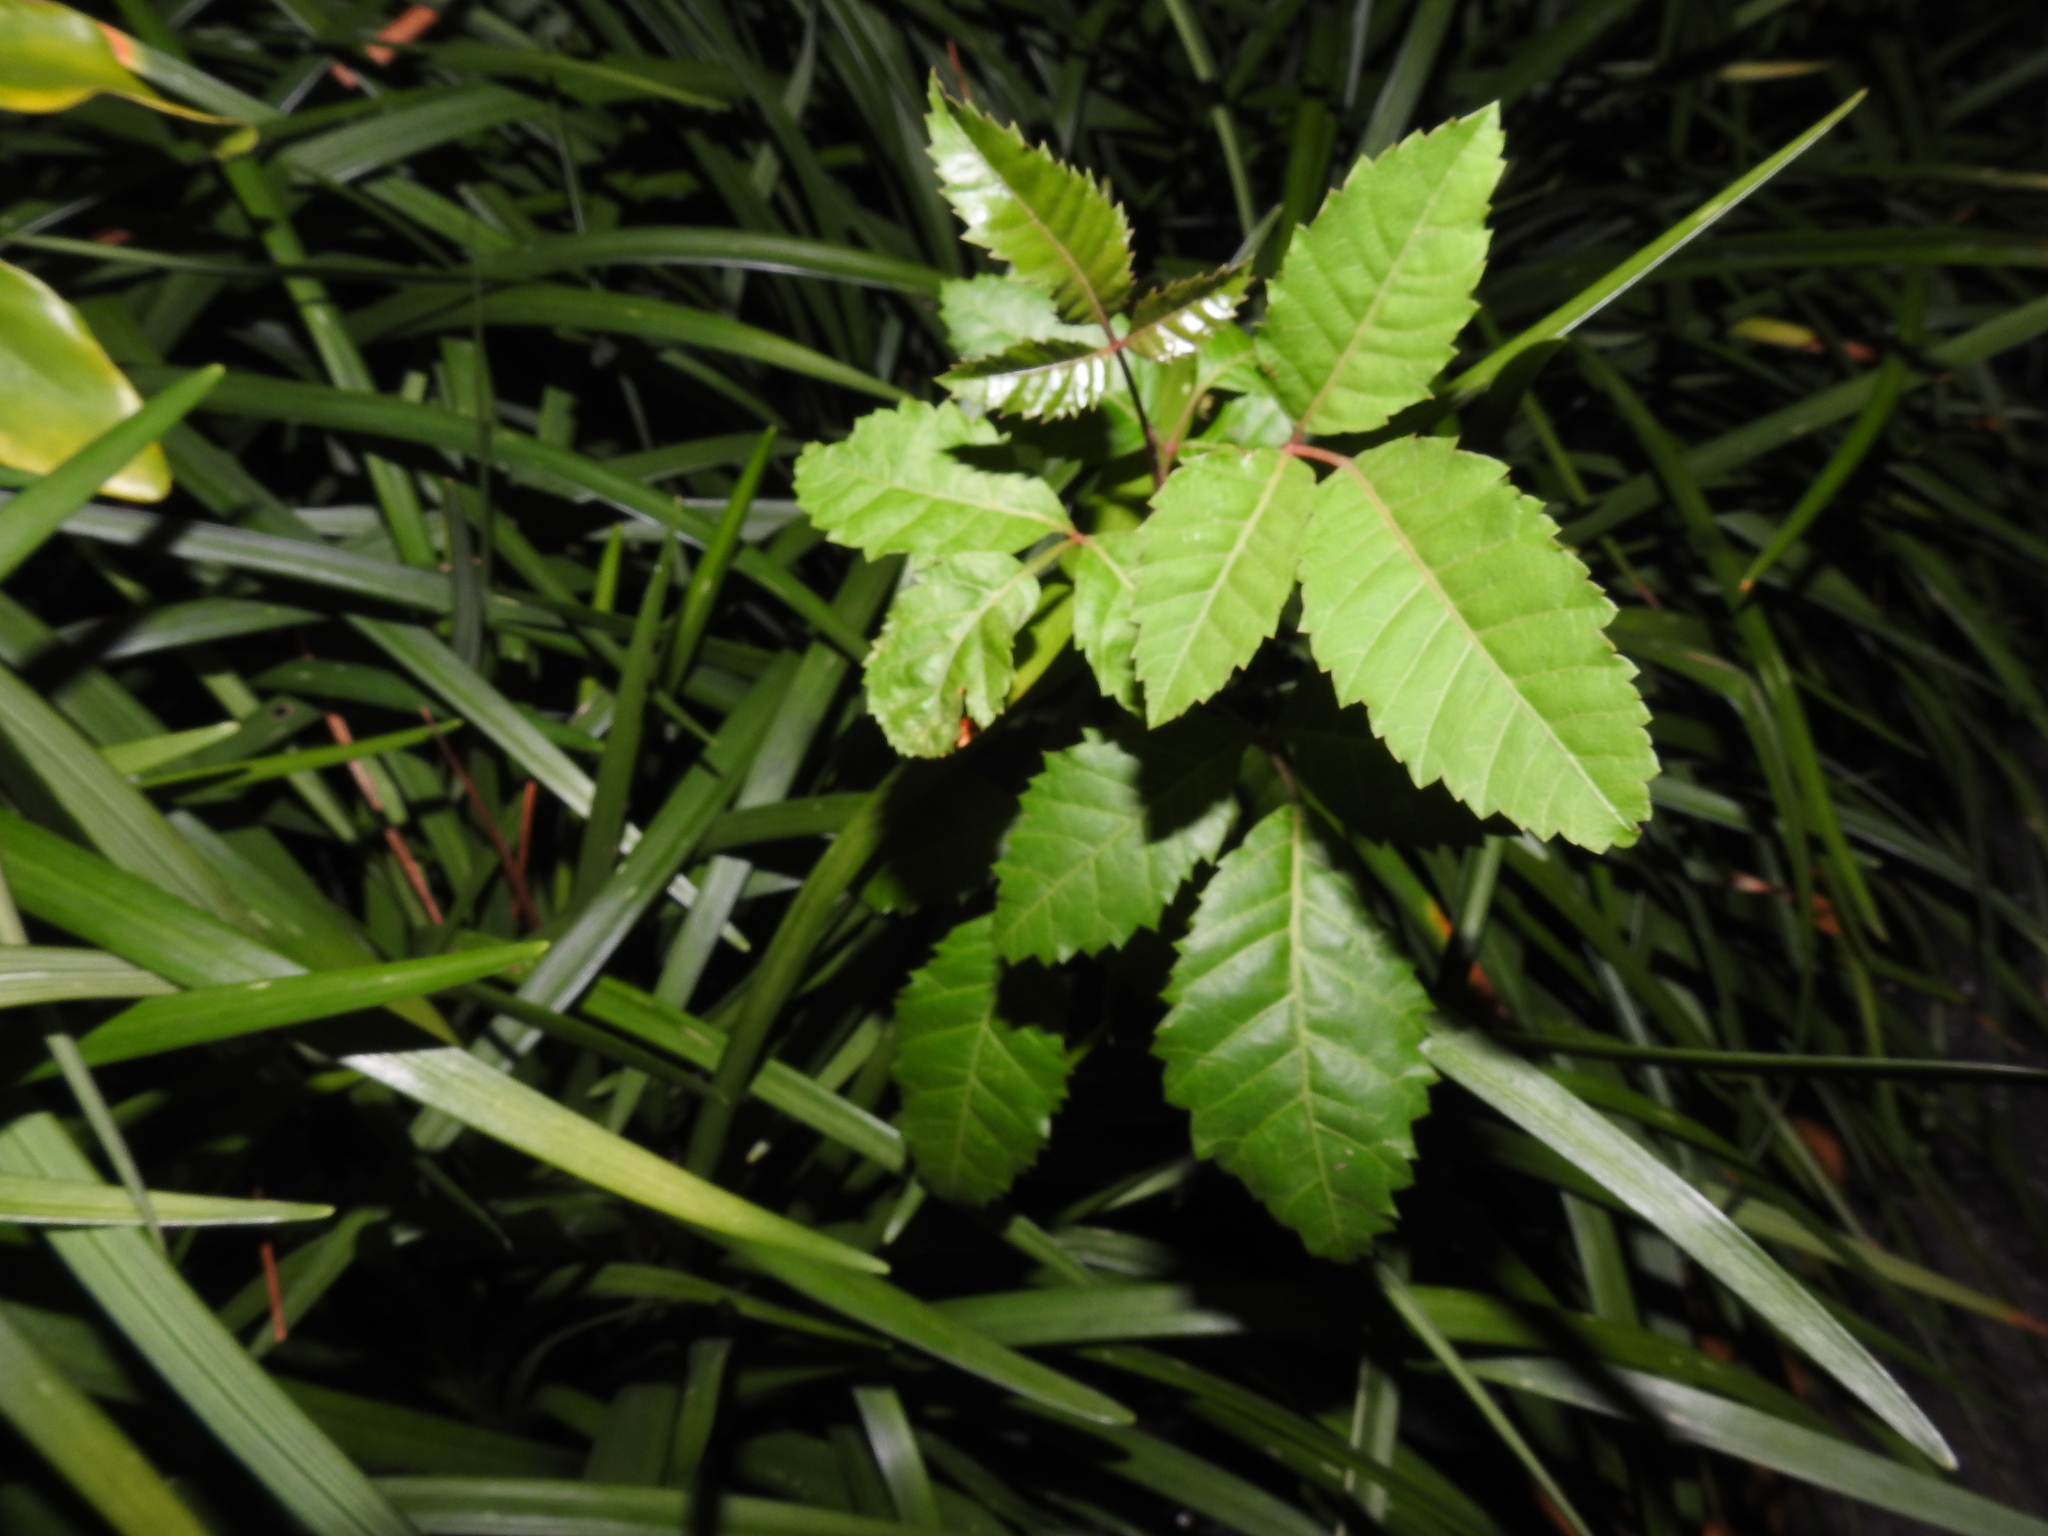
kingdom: Plantae
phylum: Tracheophyta
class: Magnoliopsida
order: Sapindales
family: Anacardiaceae
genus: Schinus
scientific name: Schinus terebinthifolia
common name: Brazilian peppertree
